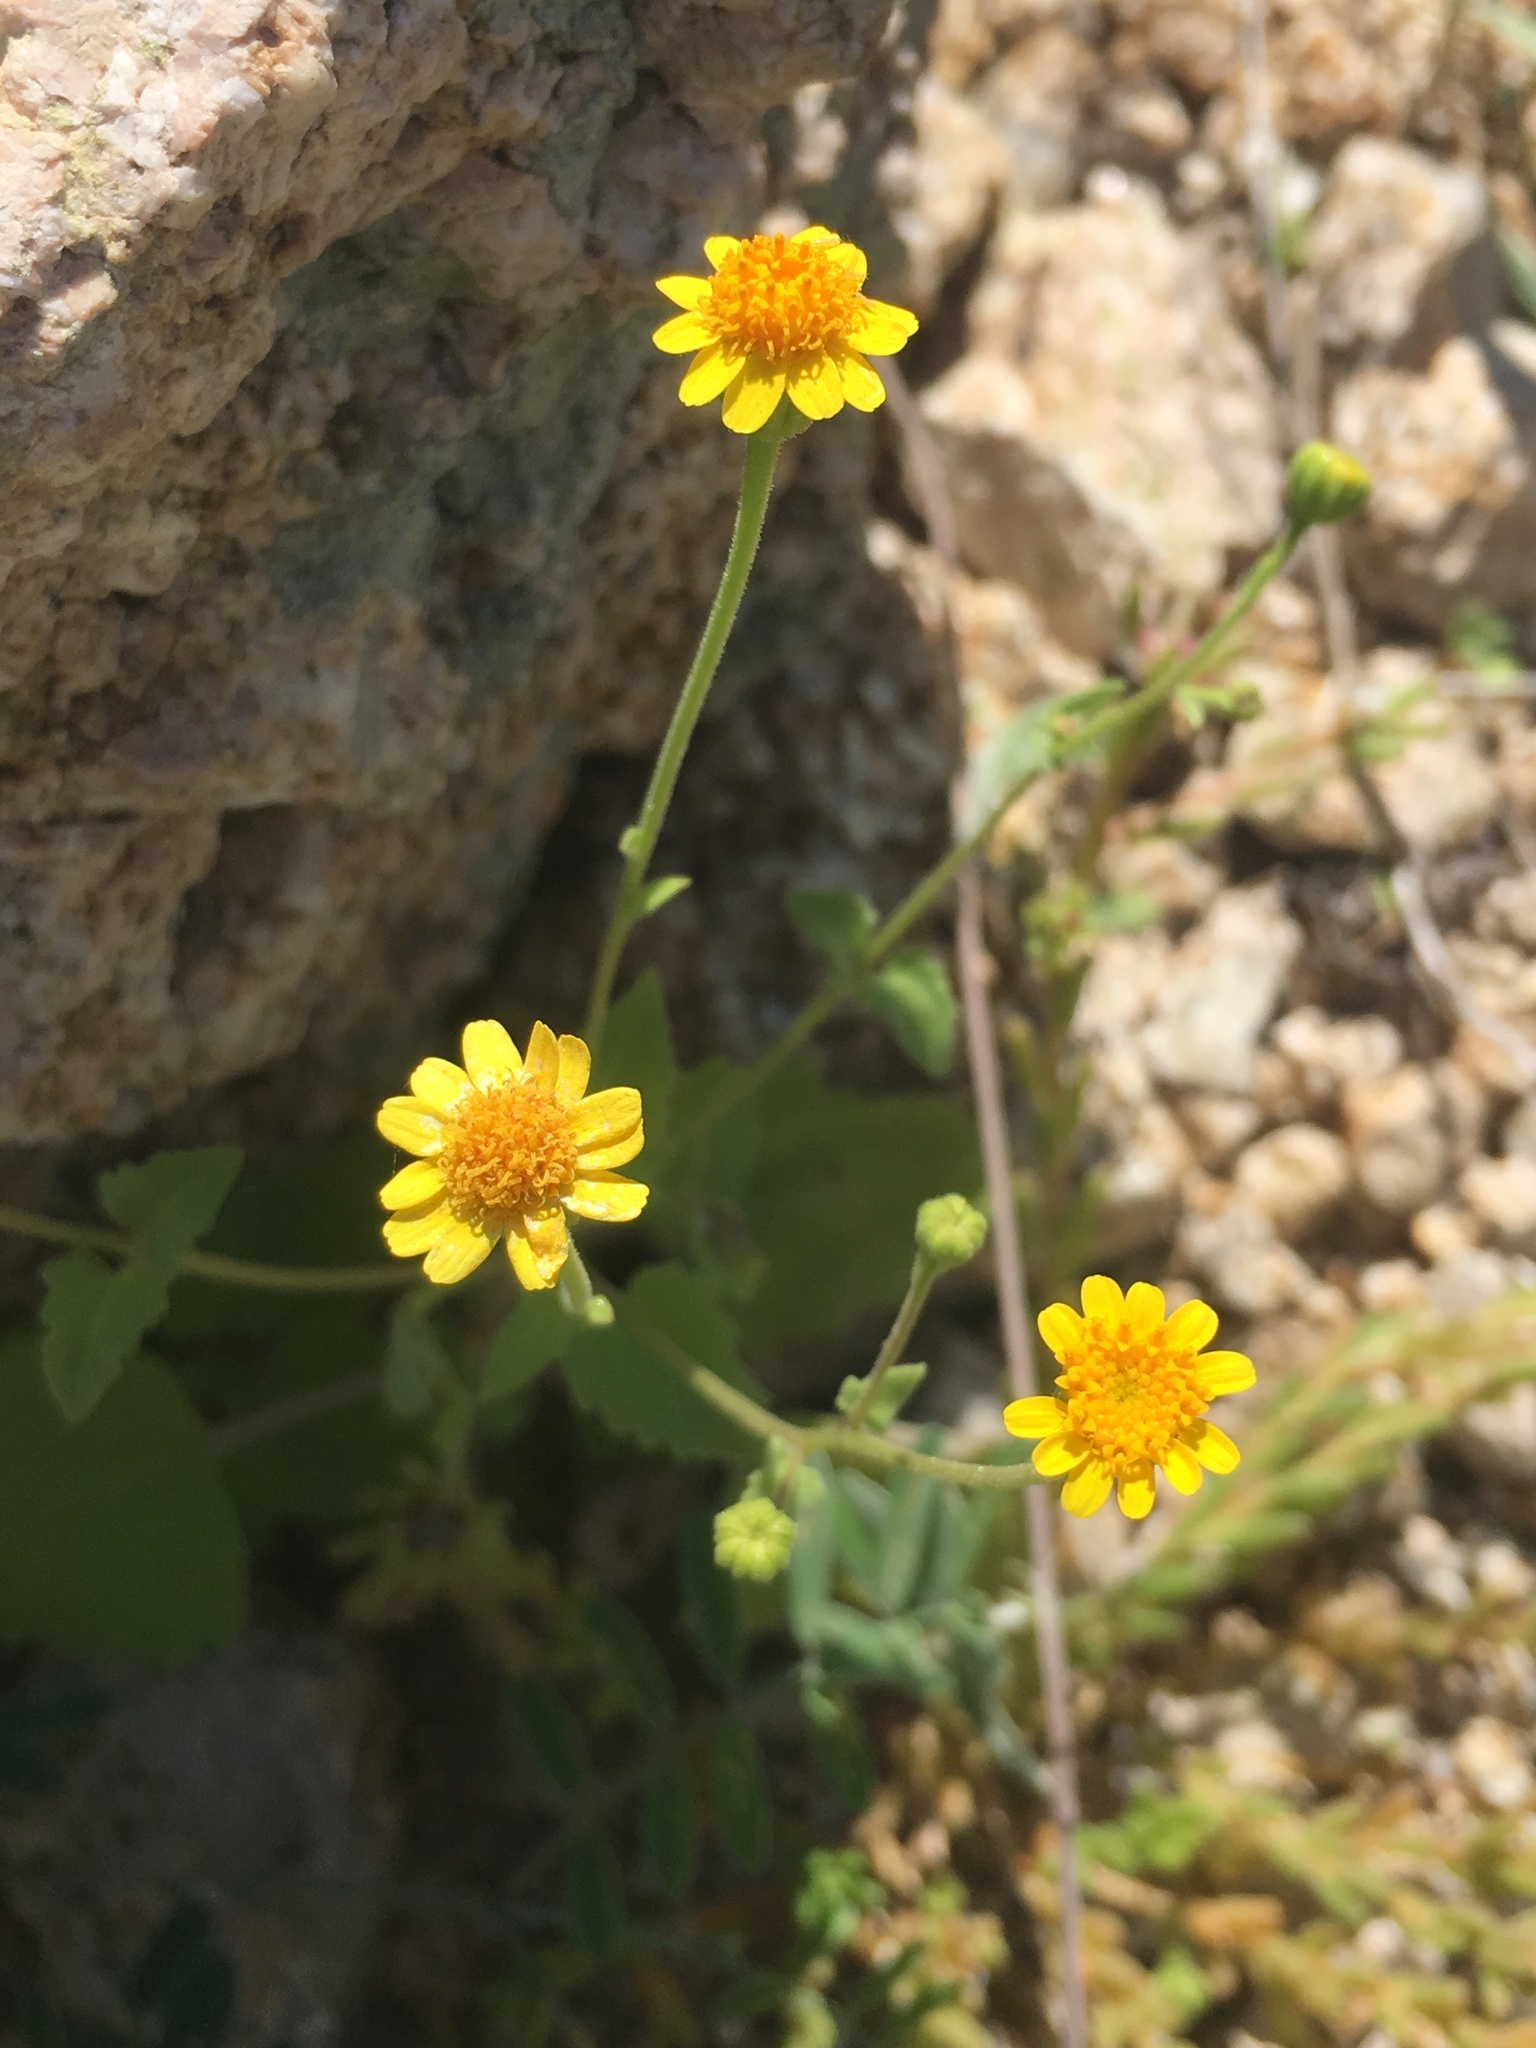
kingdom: Plantae
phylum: Tracheophyta
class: Magnoliopsida
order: Asterales
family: Asteraceae
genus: Perityle
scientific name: Perityle cuneata
